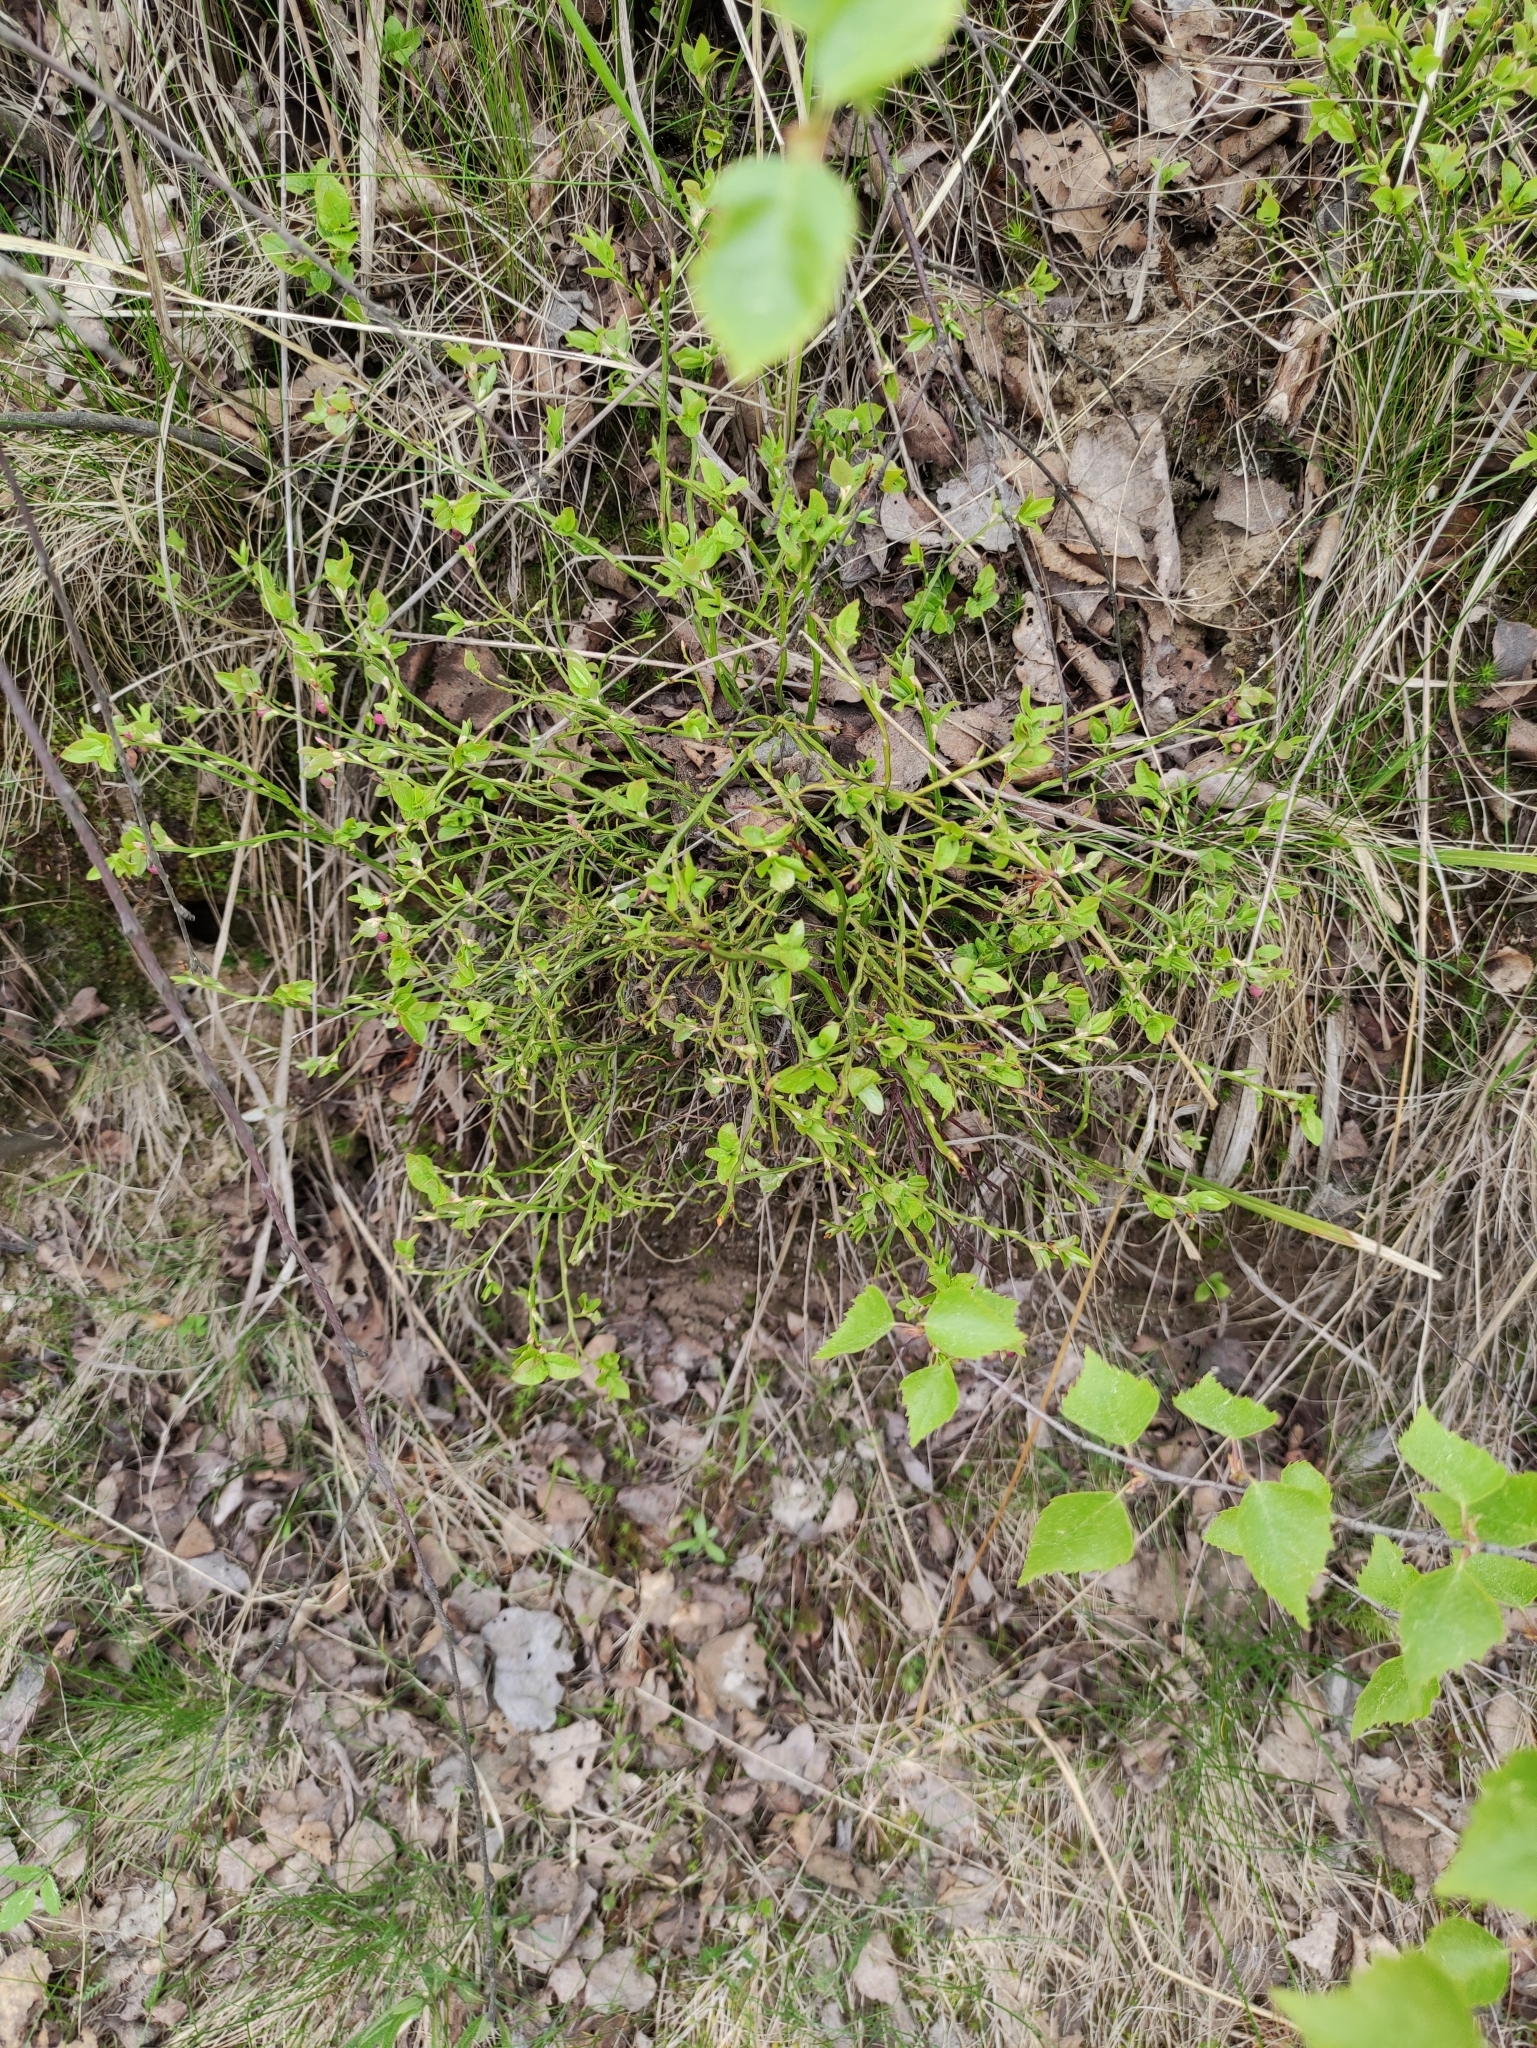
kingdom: Plantae
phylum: Tracheophyta
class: Magnoliopsida
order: Ericales
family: Ericaceae
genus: Vaccinium
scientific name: Vaccinium myrtillus
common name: Bilberry
